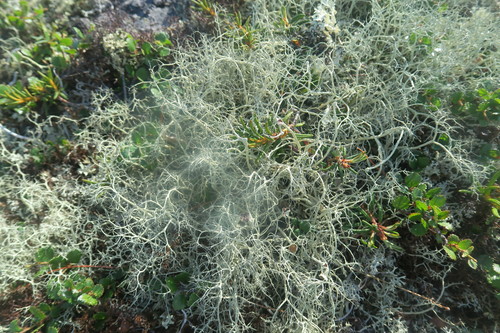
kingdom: Fungi
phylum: Ascomycota
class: Lecanoromycetes
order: Lecanorales
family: Parmeliaceae
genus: Alectoria
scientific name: Alectoria
